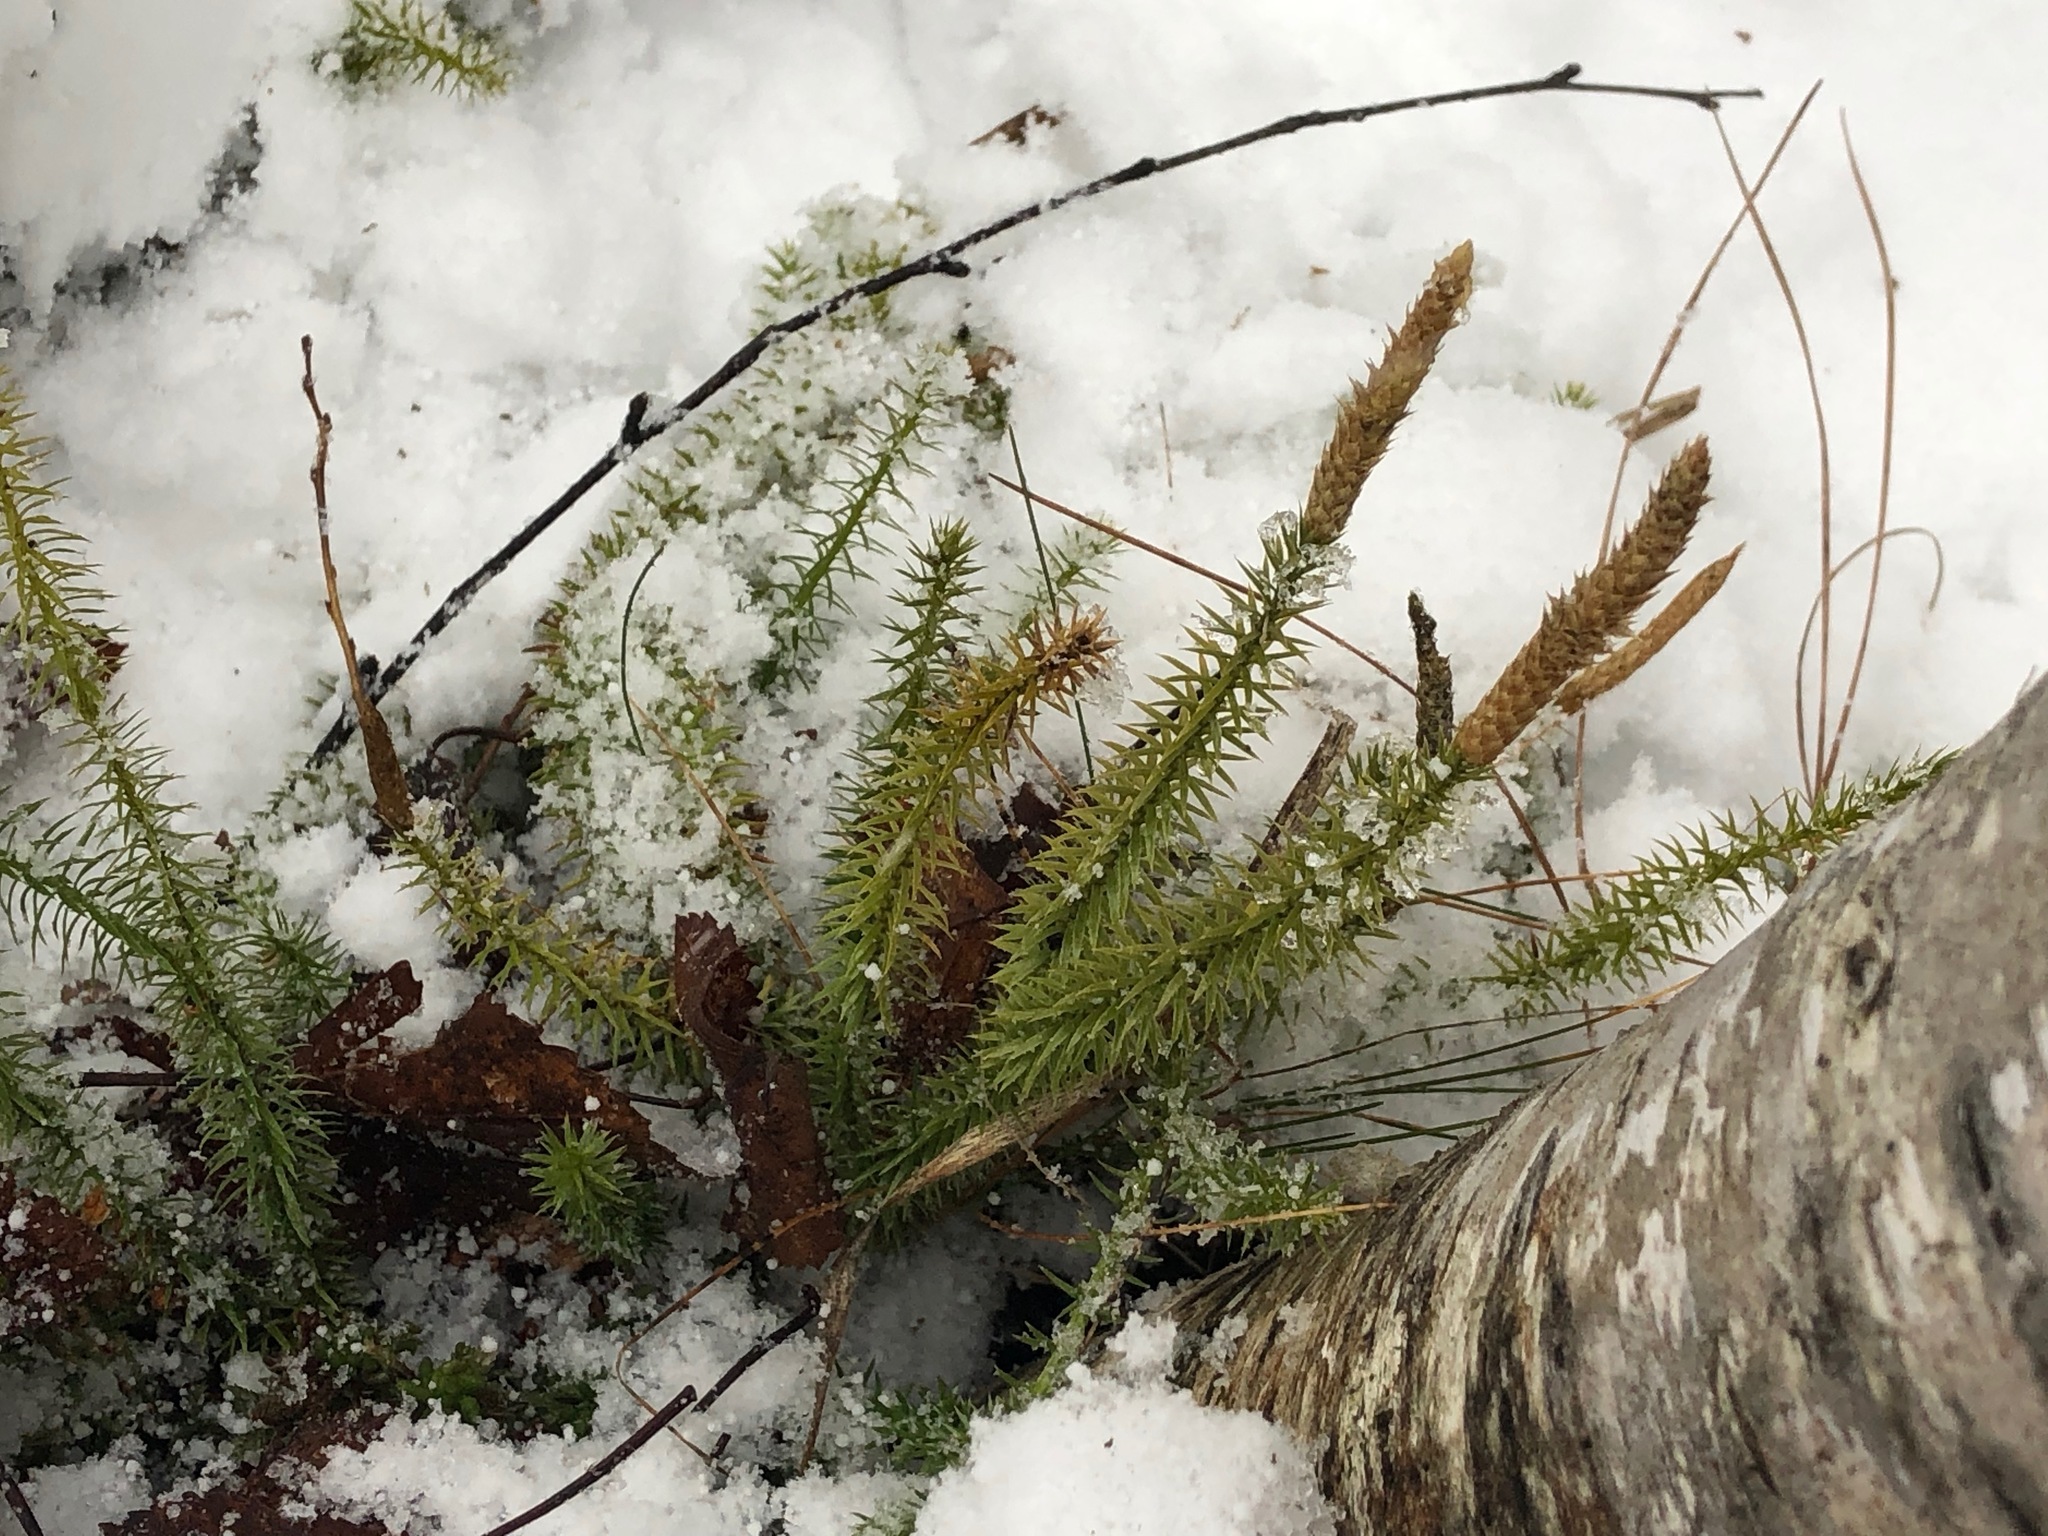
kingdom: Plantae
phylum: Tracheophyta
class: Lycopodiopsida
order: Lycopodiales
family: Lycopodiaceae
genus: Spinulum
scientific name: Spinulum annotinum
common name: Interrupted club-moss
